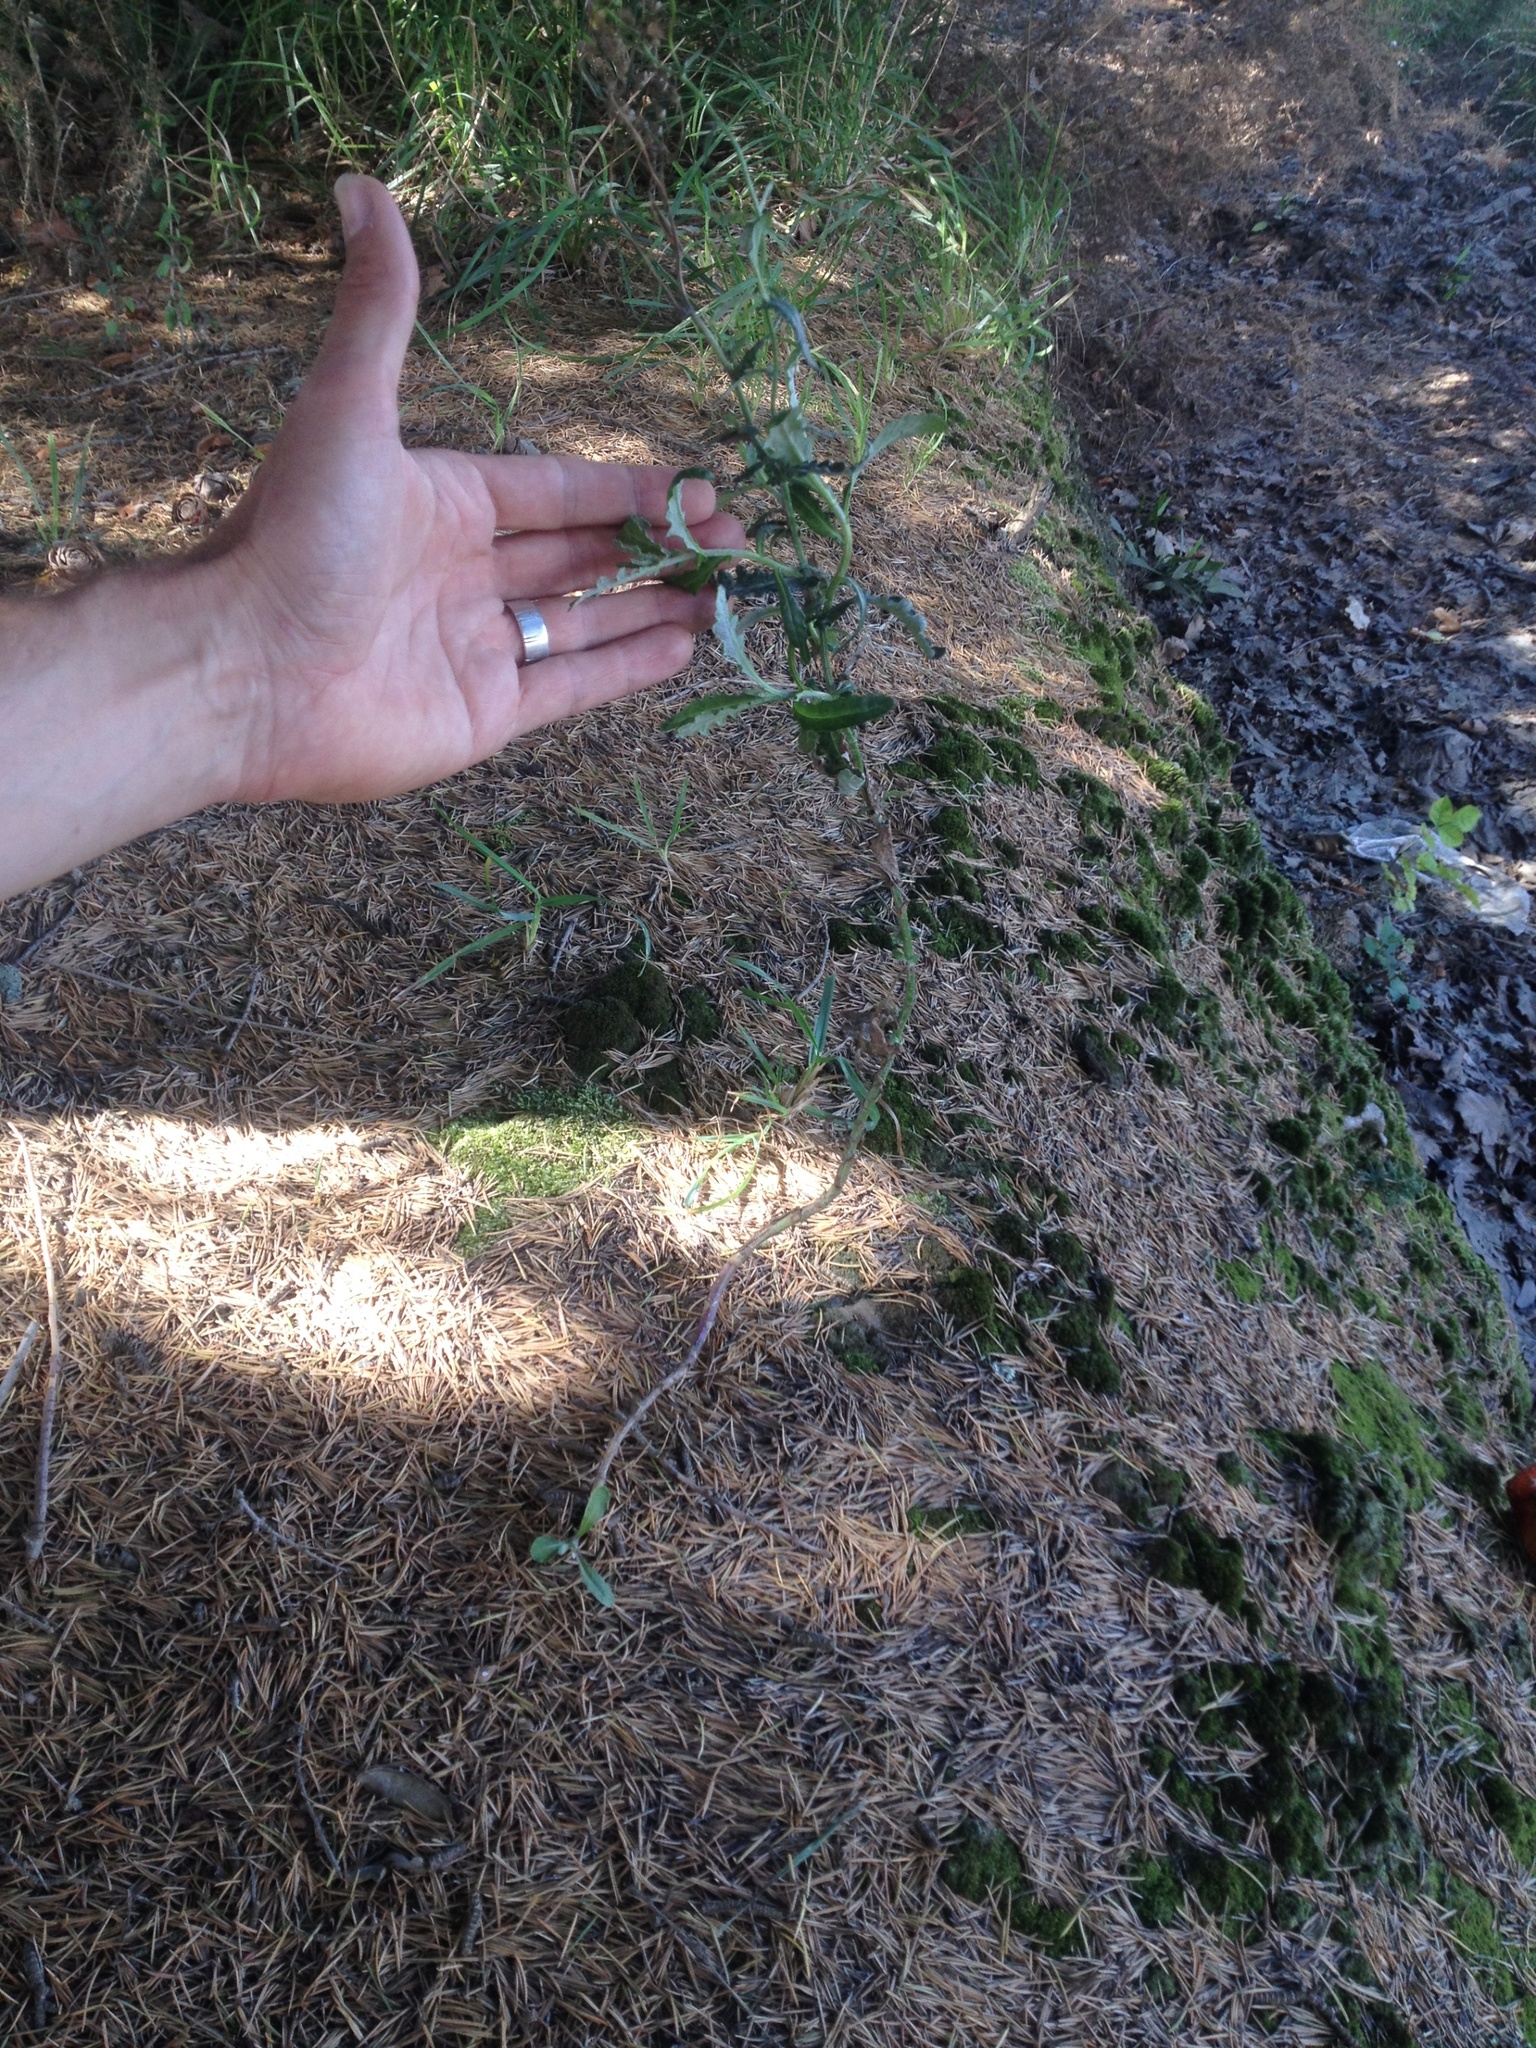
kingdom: Plantae
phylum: Tracheophyta
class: Magnoliopsida
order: Asterales
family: Asteraceae
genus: Senecio
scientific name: Senecio glomeratus
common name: Cutleaf burnweed
